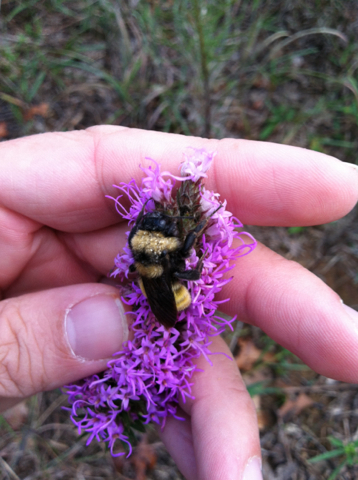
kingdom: Animalia
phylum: Arthropoda
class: Insecta
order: Hymenoptera
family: Apidae
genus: Bombus
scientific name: Bombus fraternus
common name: Southern plains bumble bee
